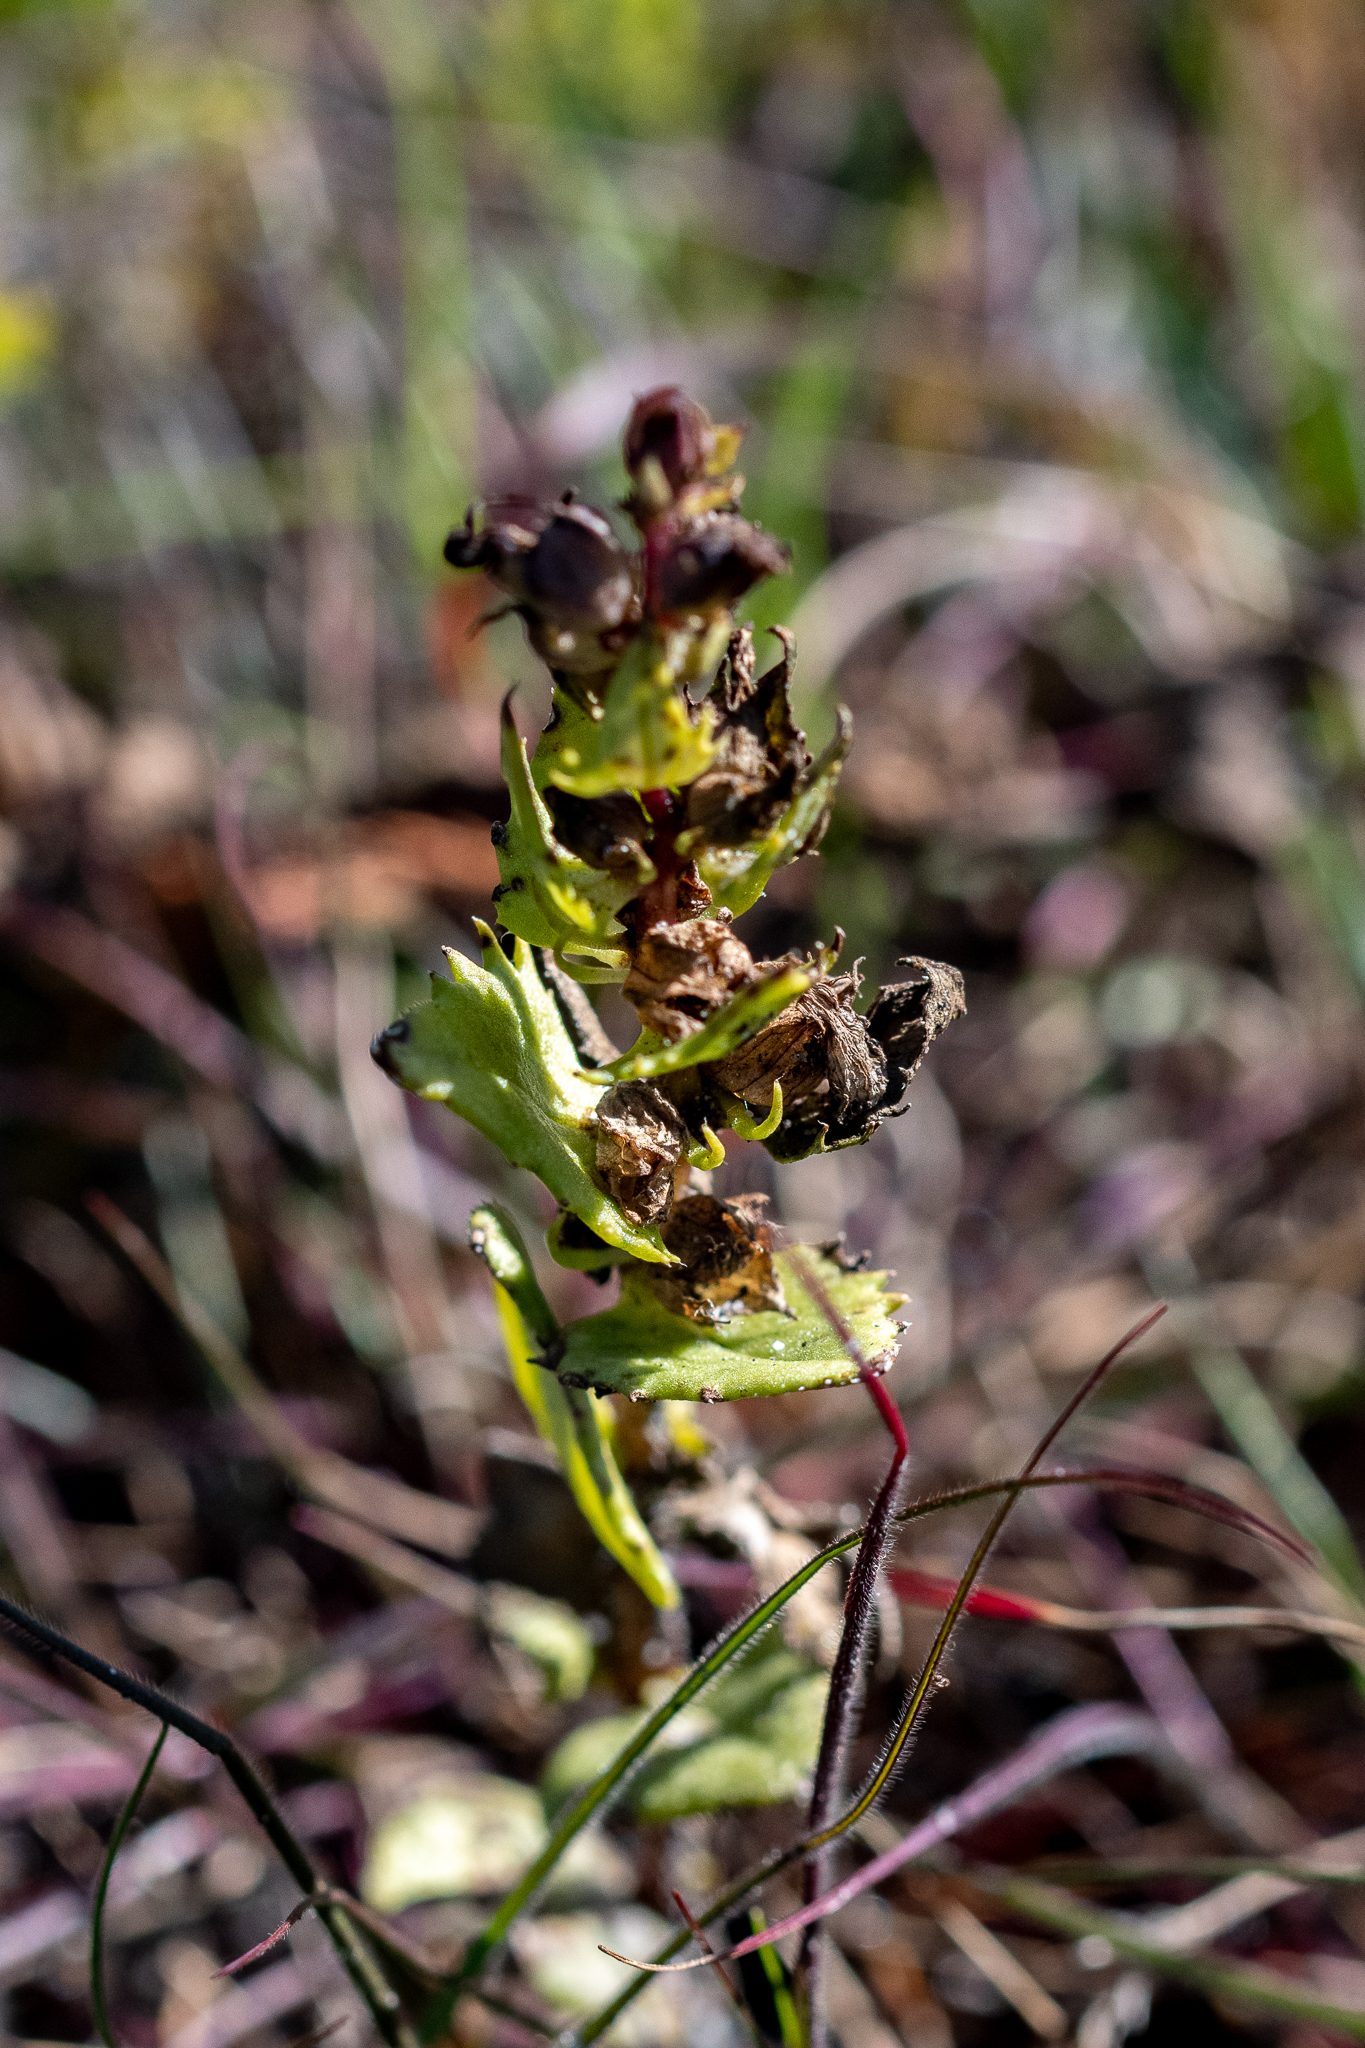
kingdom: Plantae
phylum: Tracheophyta
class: Magnoliopsida
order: Lamiales
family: Orobanchaceae
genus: Alectra
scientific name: Alectra sessiliflora
